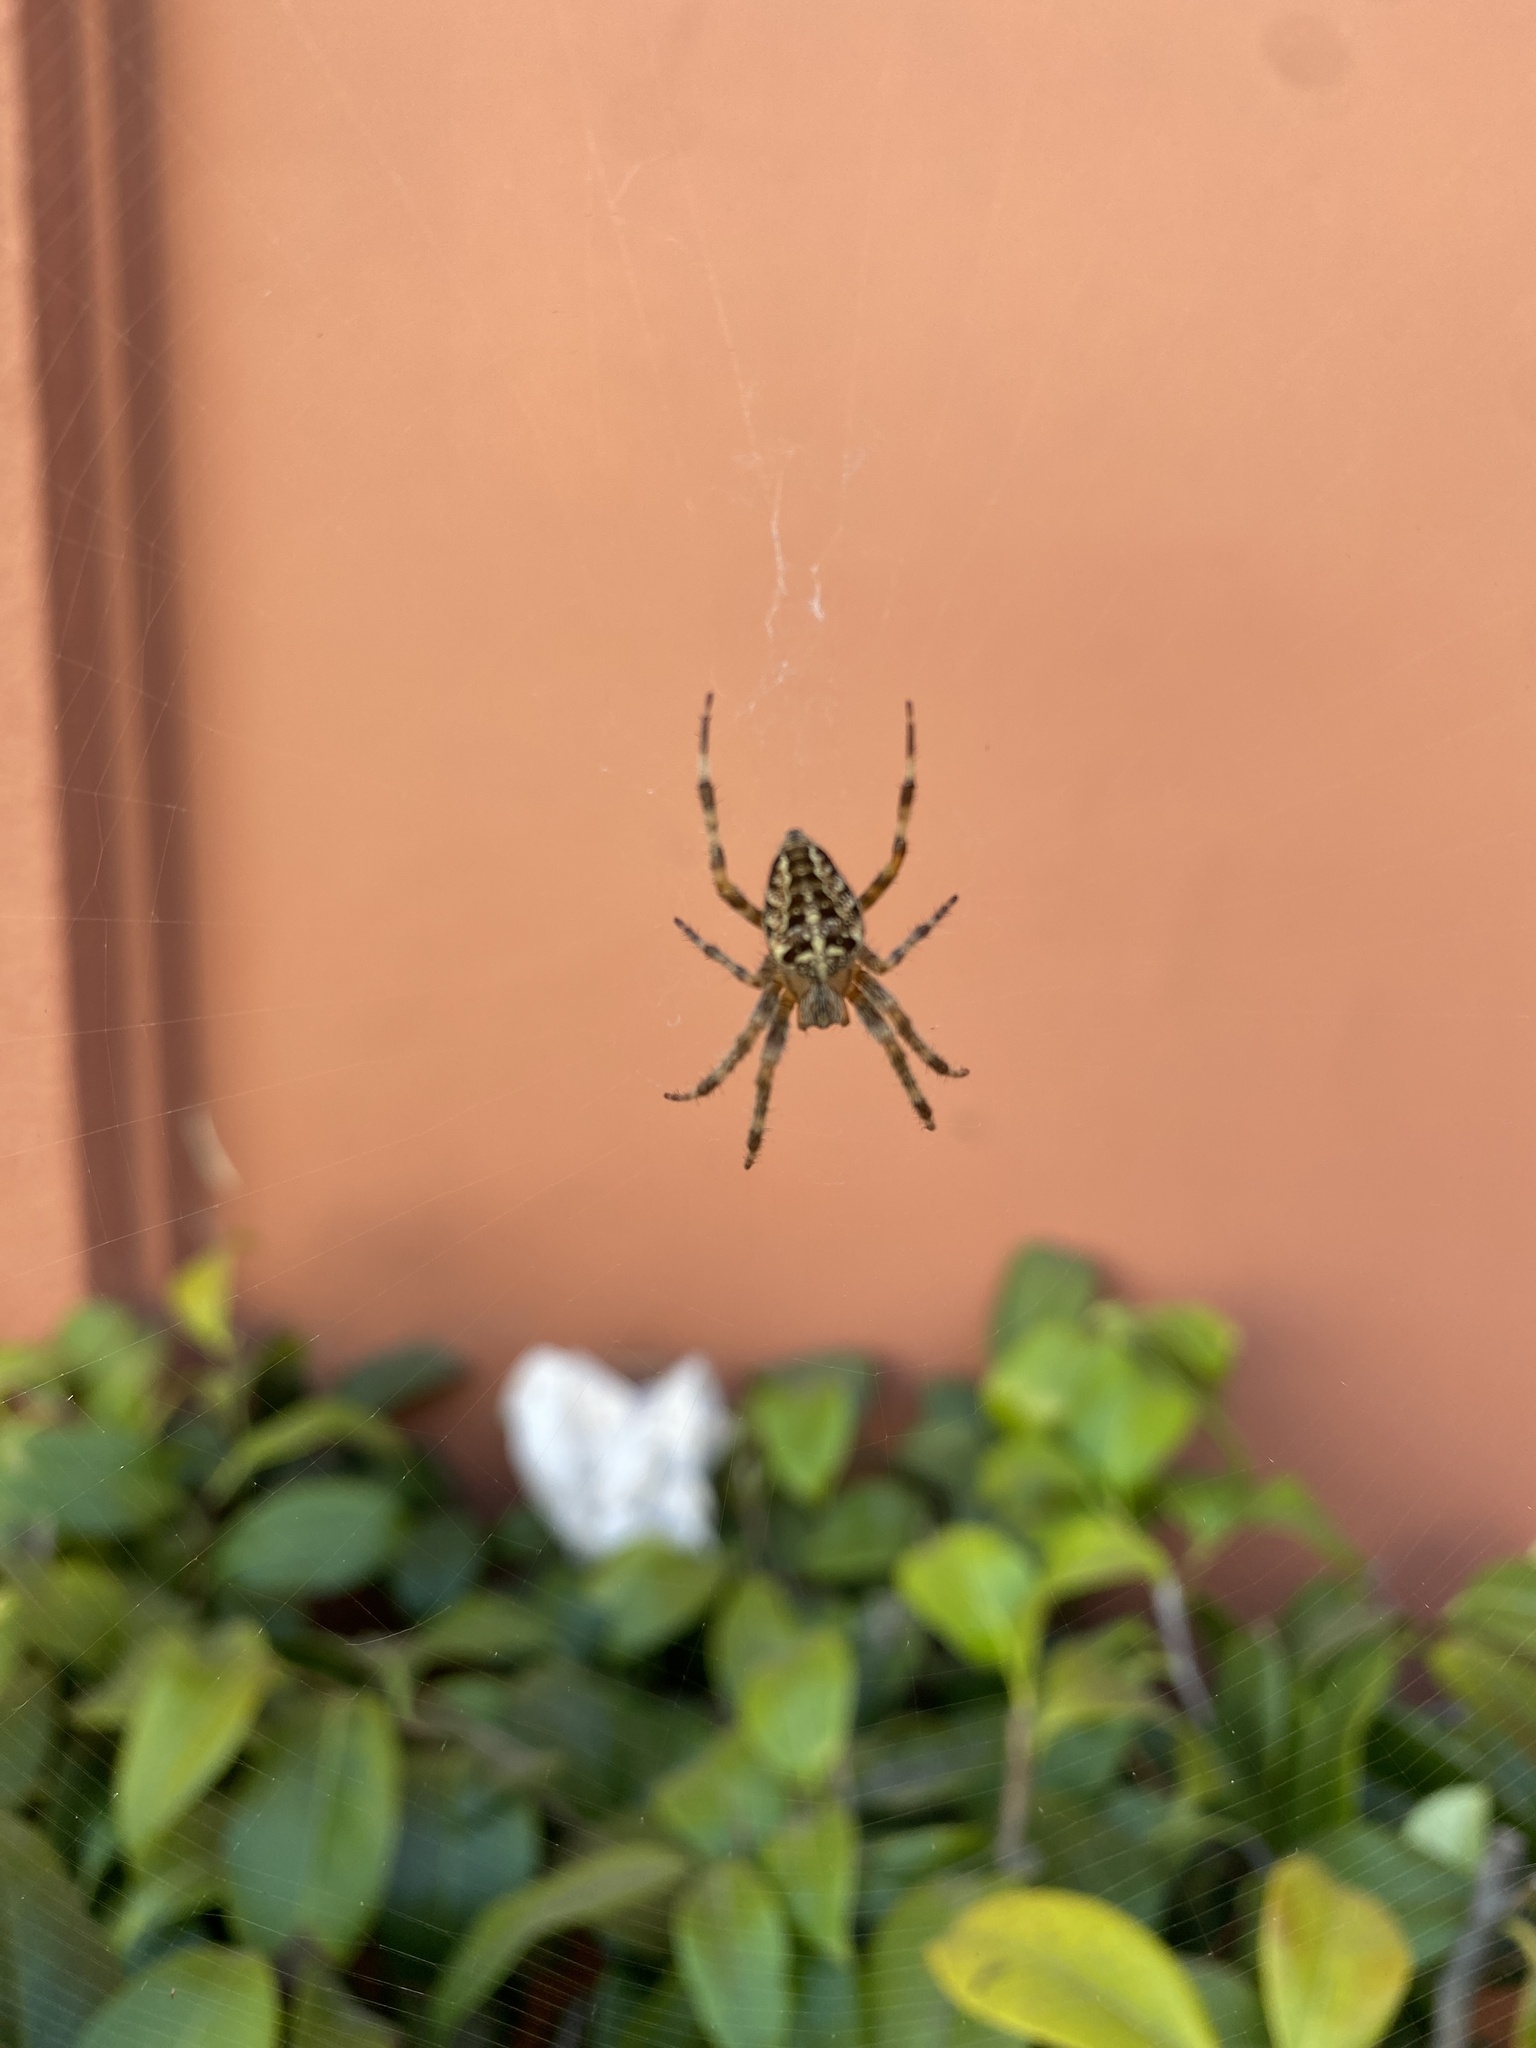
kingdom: Animalia
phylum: Arthropoda
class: Arachnida
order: Araneae
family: Araneidae
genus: Araneus
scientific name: Araneus diadematus
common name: Cross orbweaver
